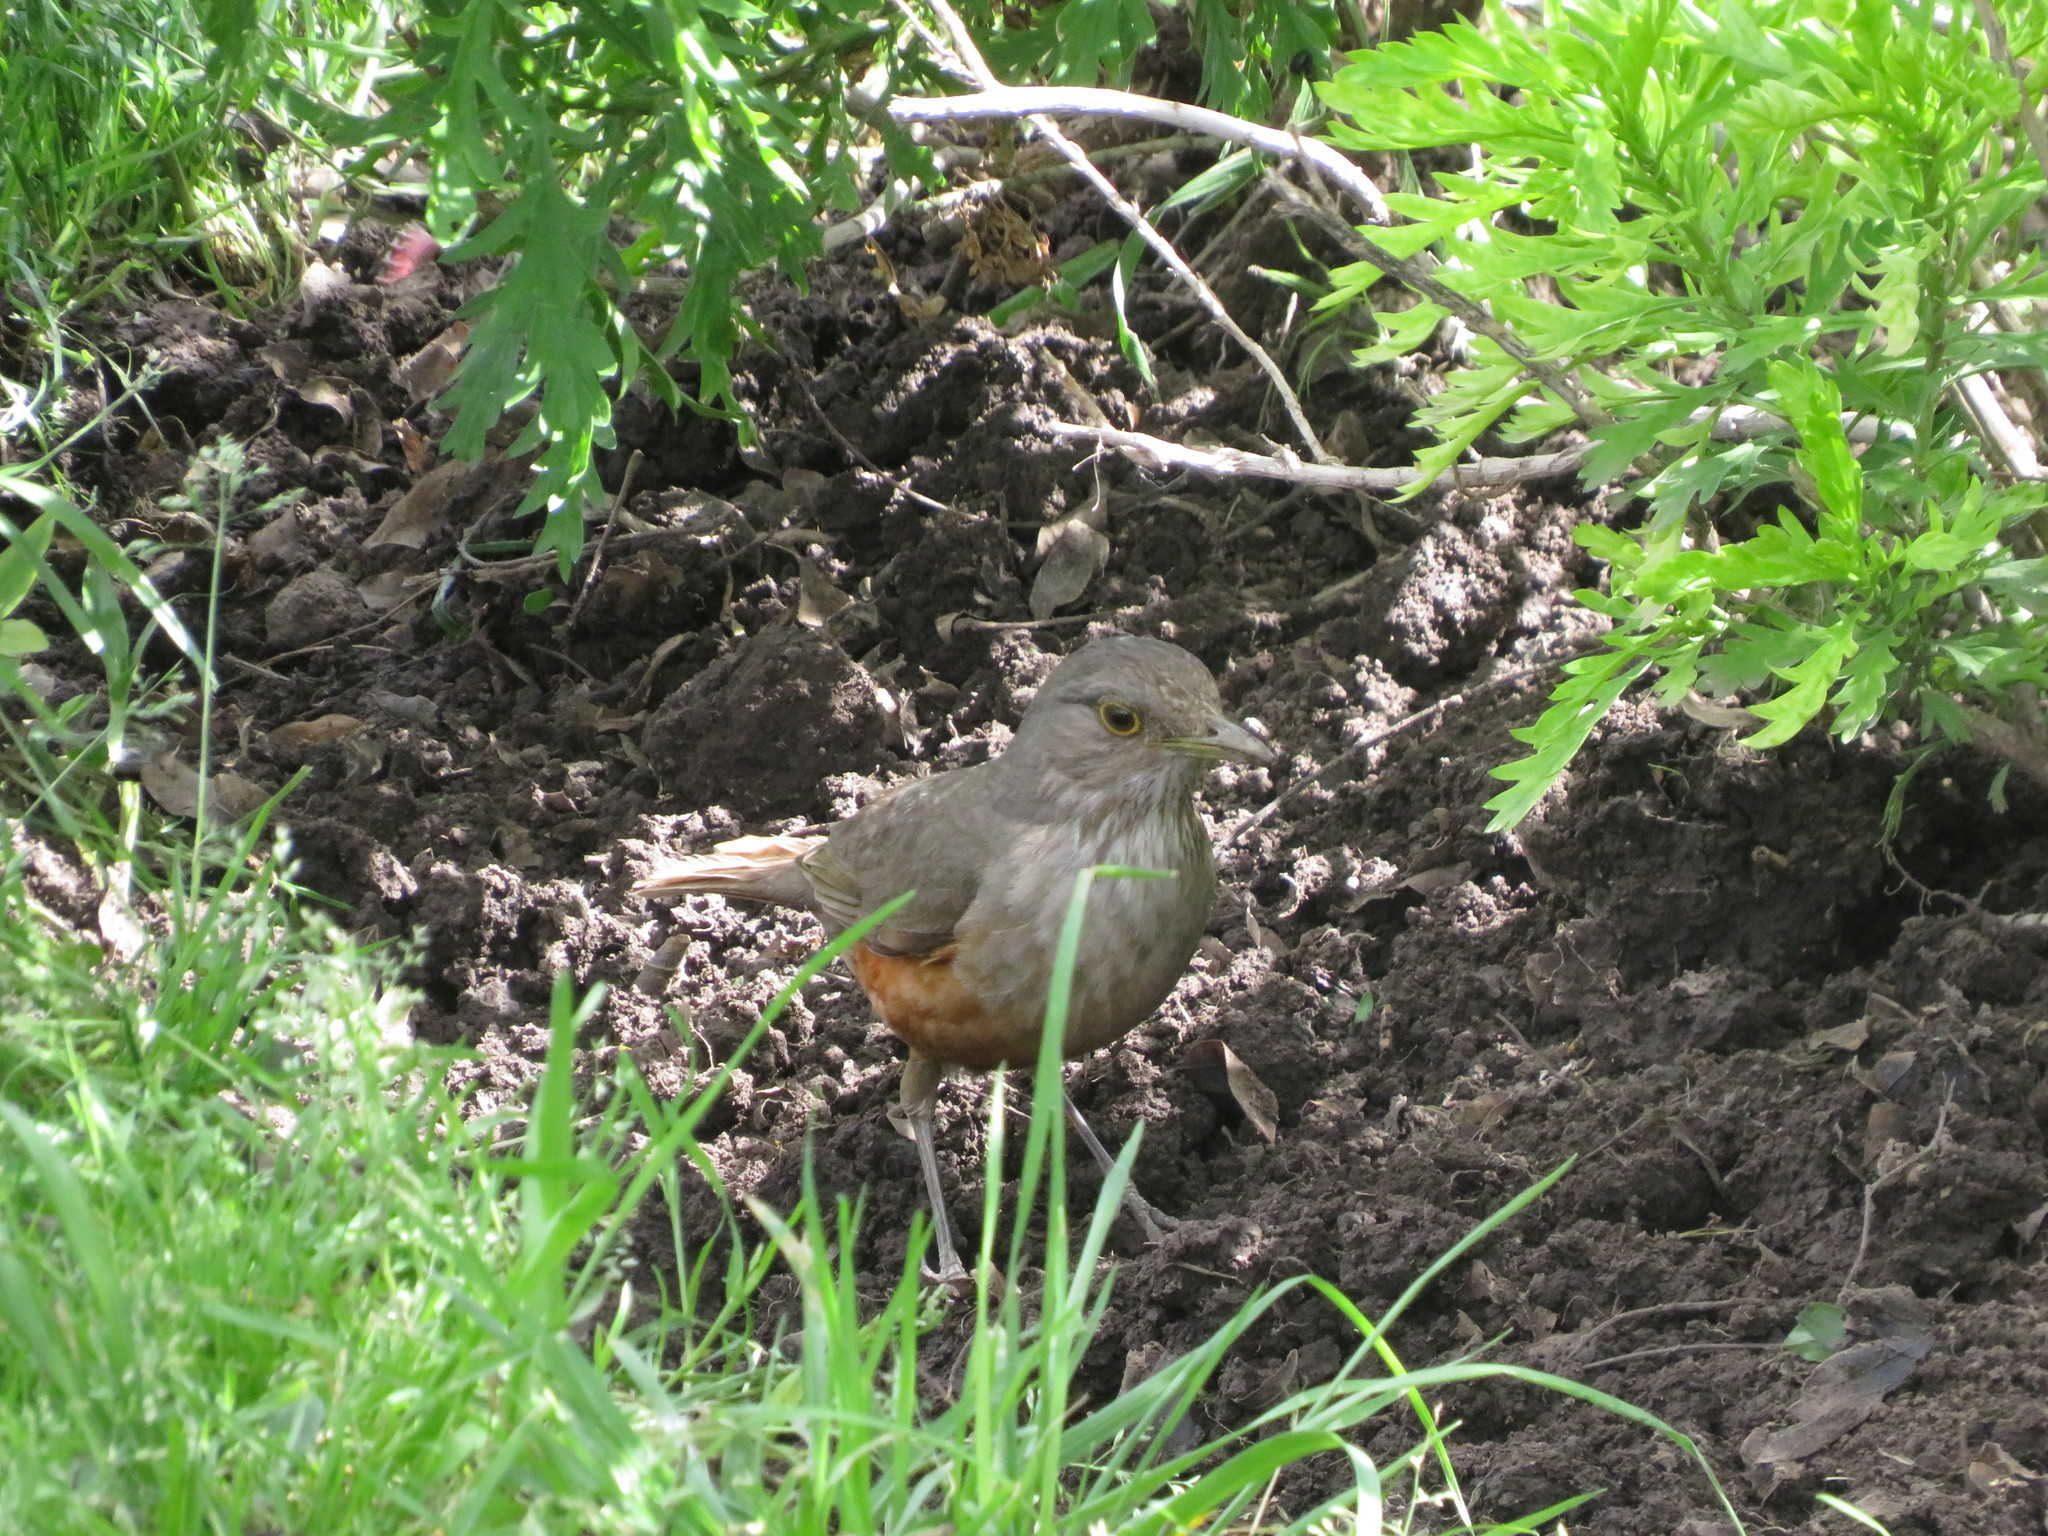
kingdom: Animalia
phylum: Chordata
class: Aves
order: Passeriformes
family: Turdidae
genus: Turdus
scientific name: Turdus rufiventris
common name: Rufous-bellied thrush
